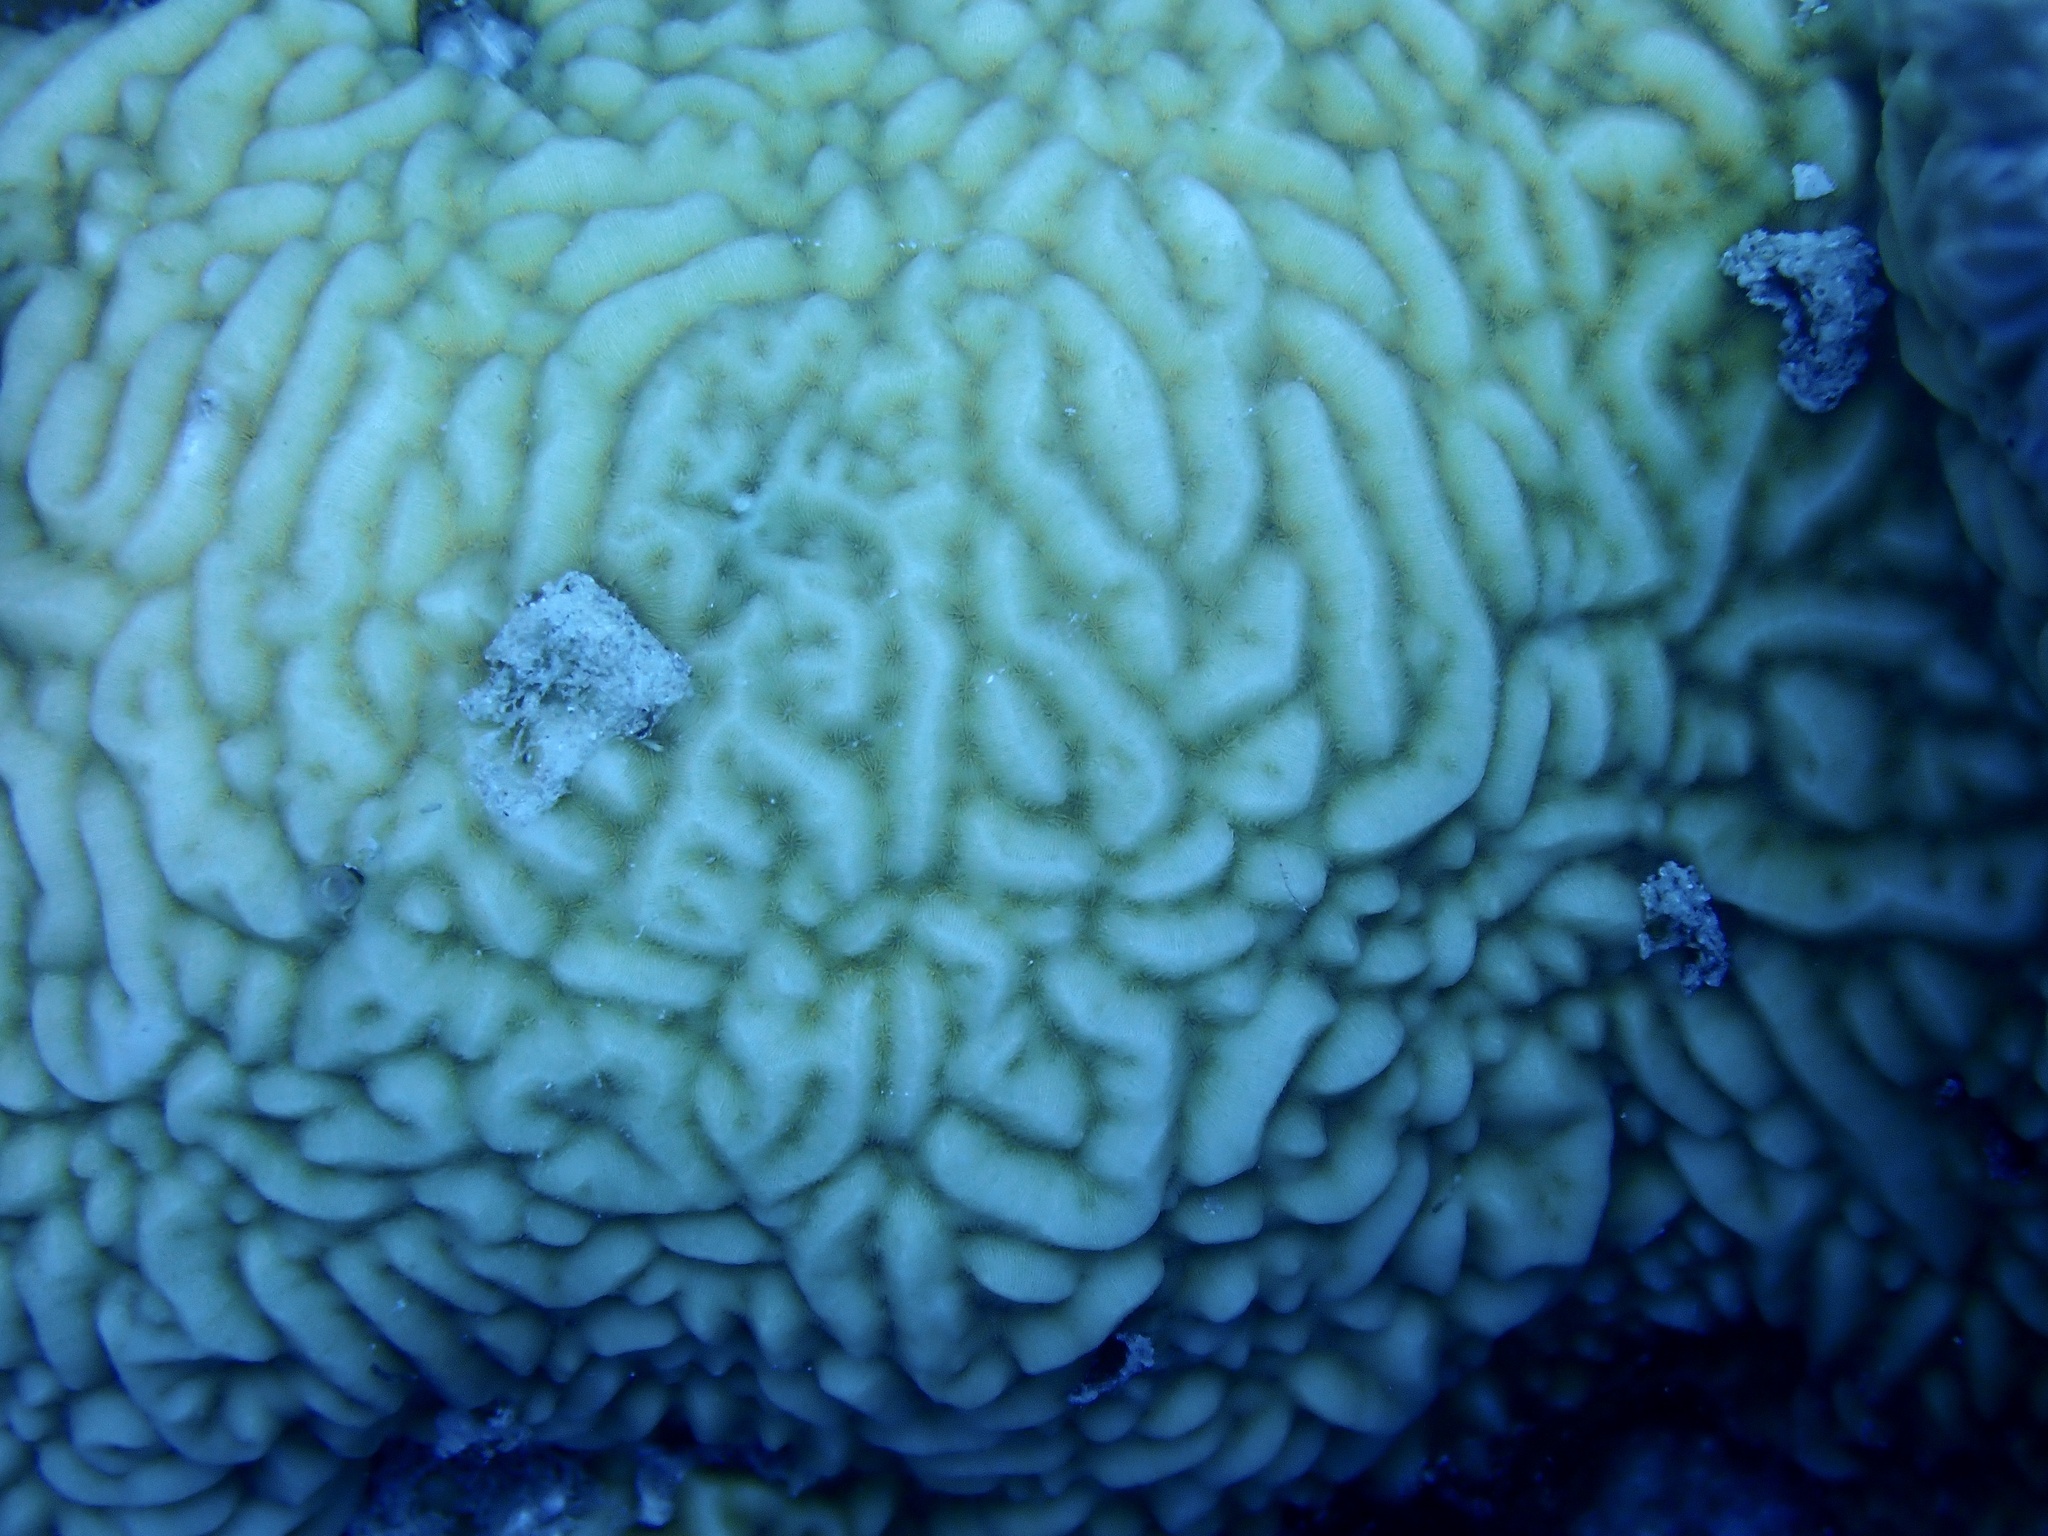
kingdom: Animalia
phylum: Cnidaria
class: Anthozoa
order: Scleractinia
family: Agariciidae
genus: Pavona
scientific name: Pavona varians
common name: Leaf coral
